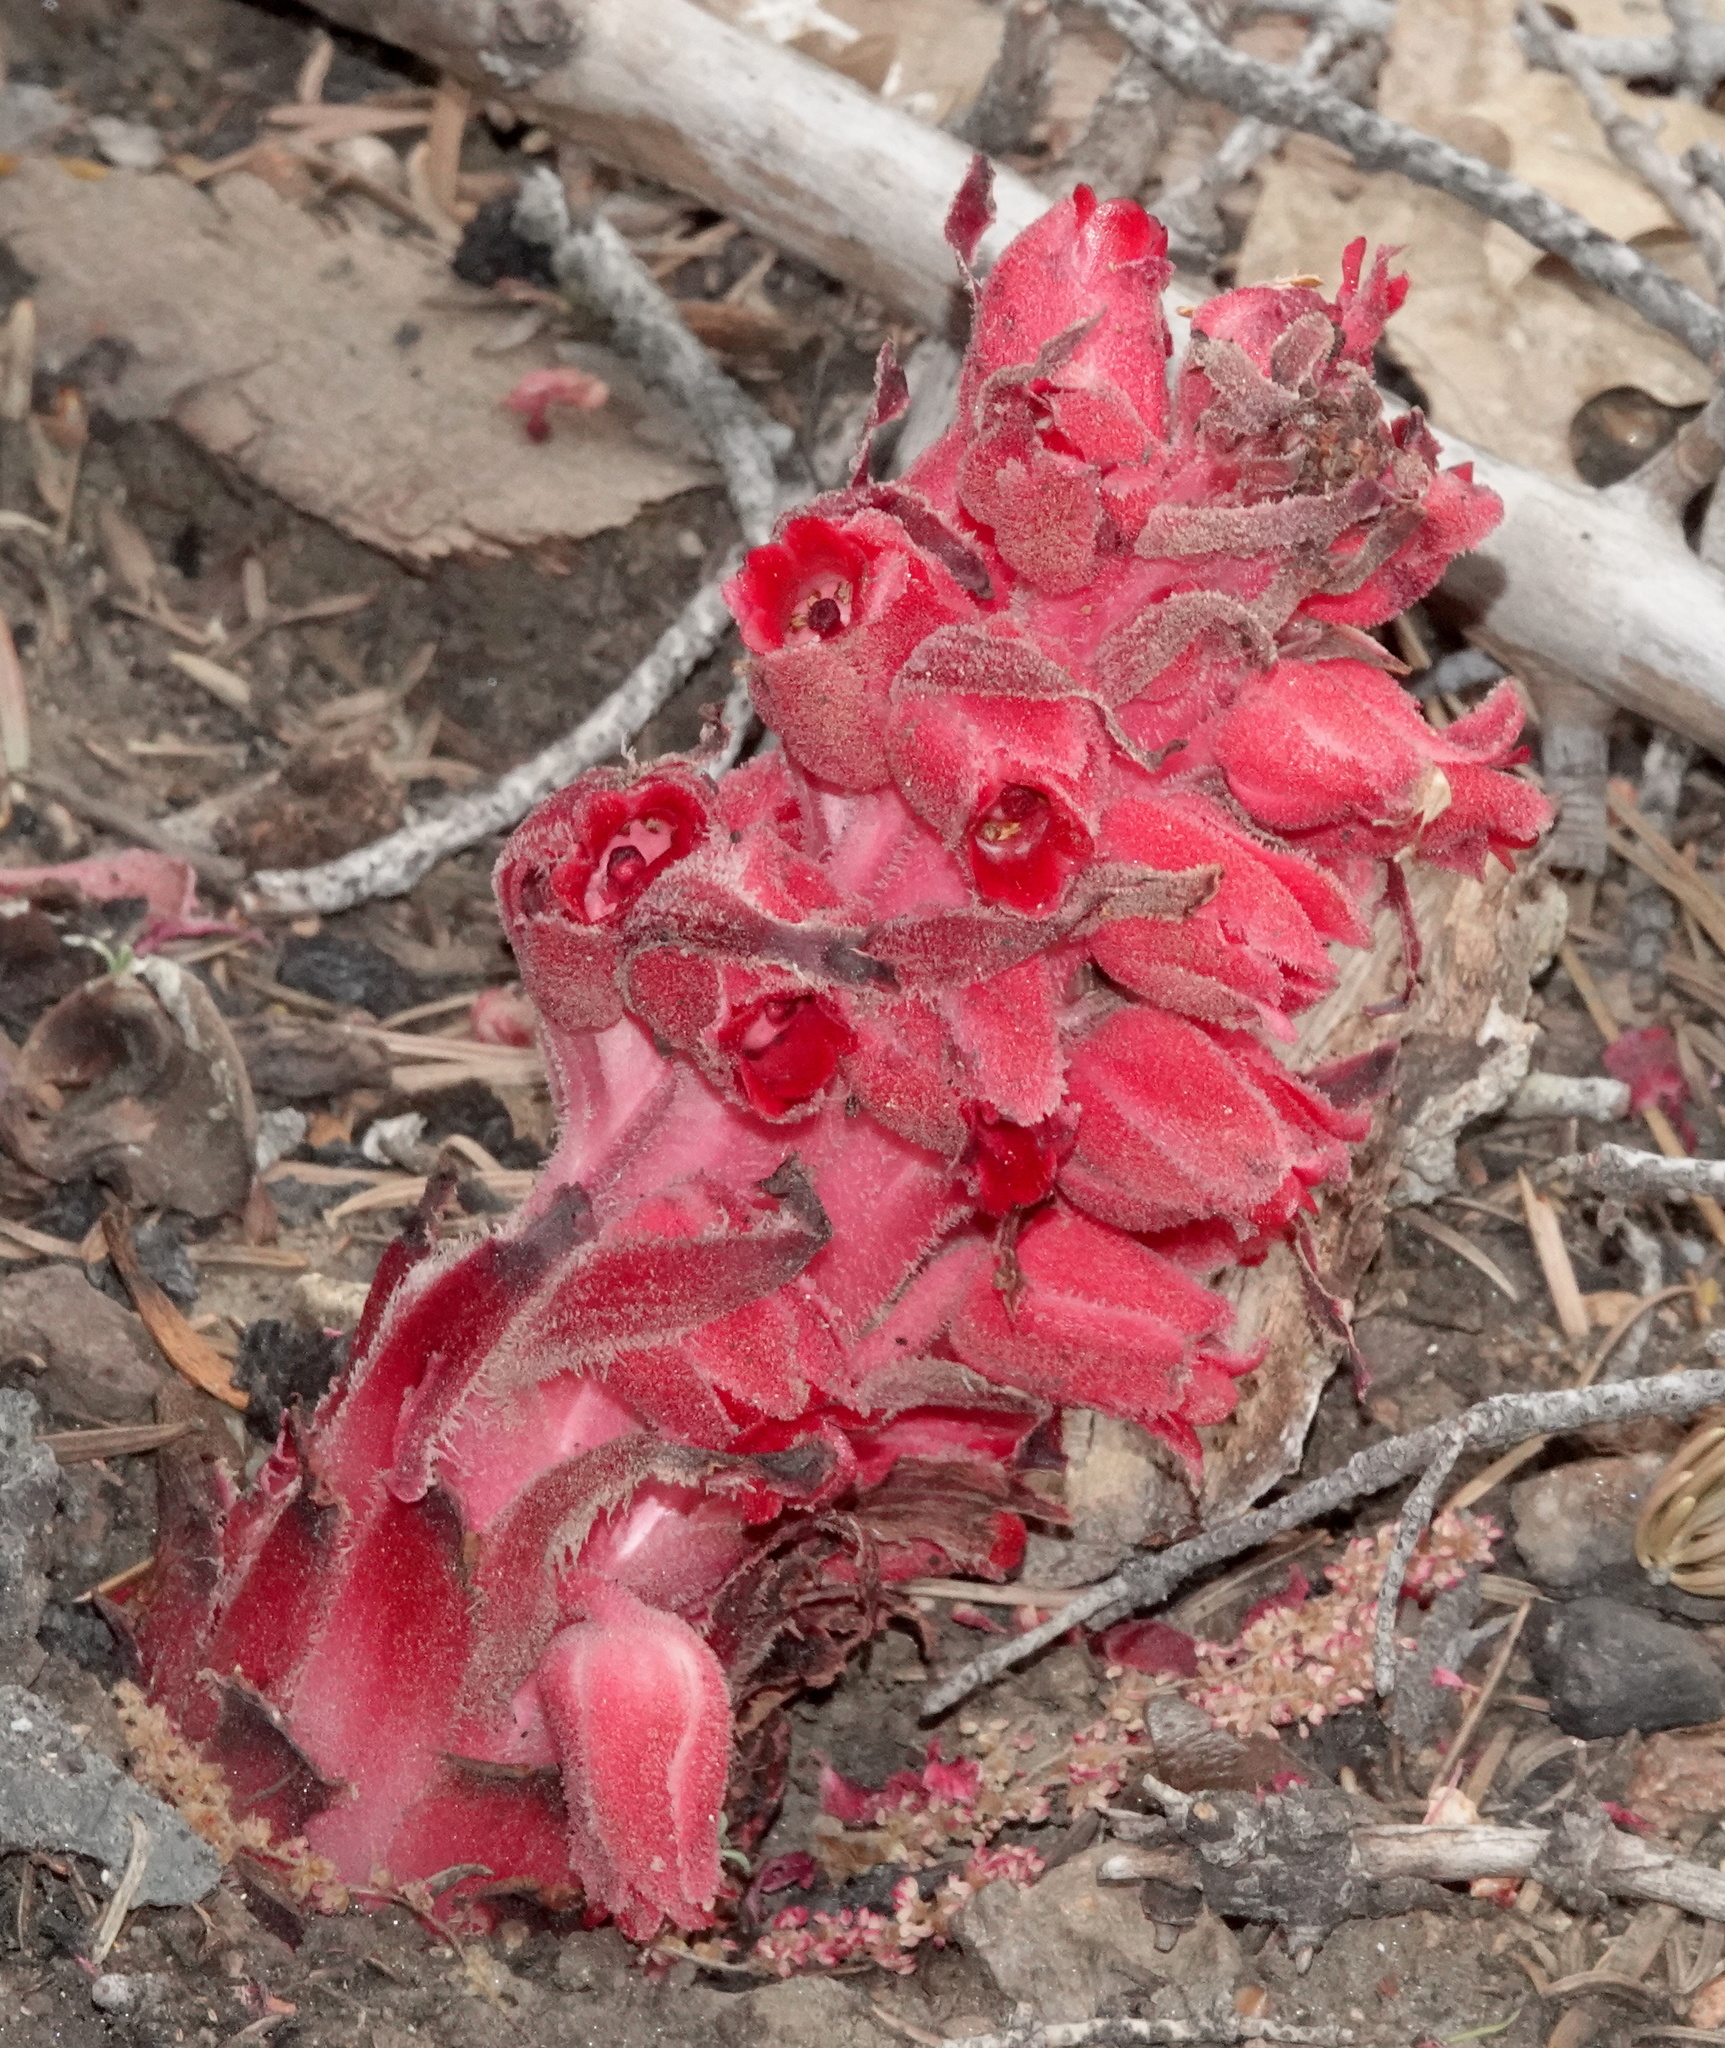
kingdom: Plantae
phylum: Tracheophyta
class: Magnoliopsida
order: Ericales
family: Ericaceae
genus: Sarcodes
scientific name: Sarcodes sanguinea
